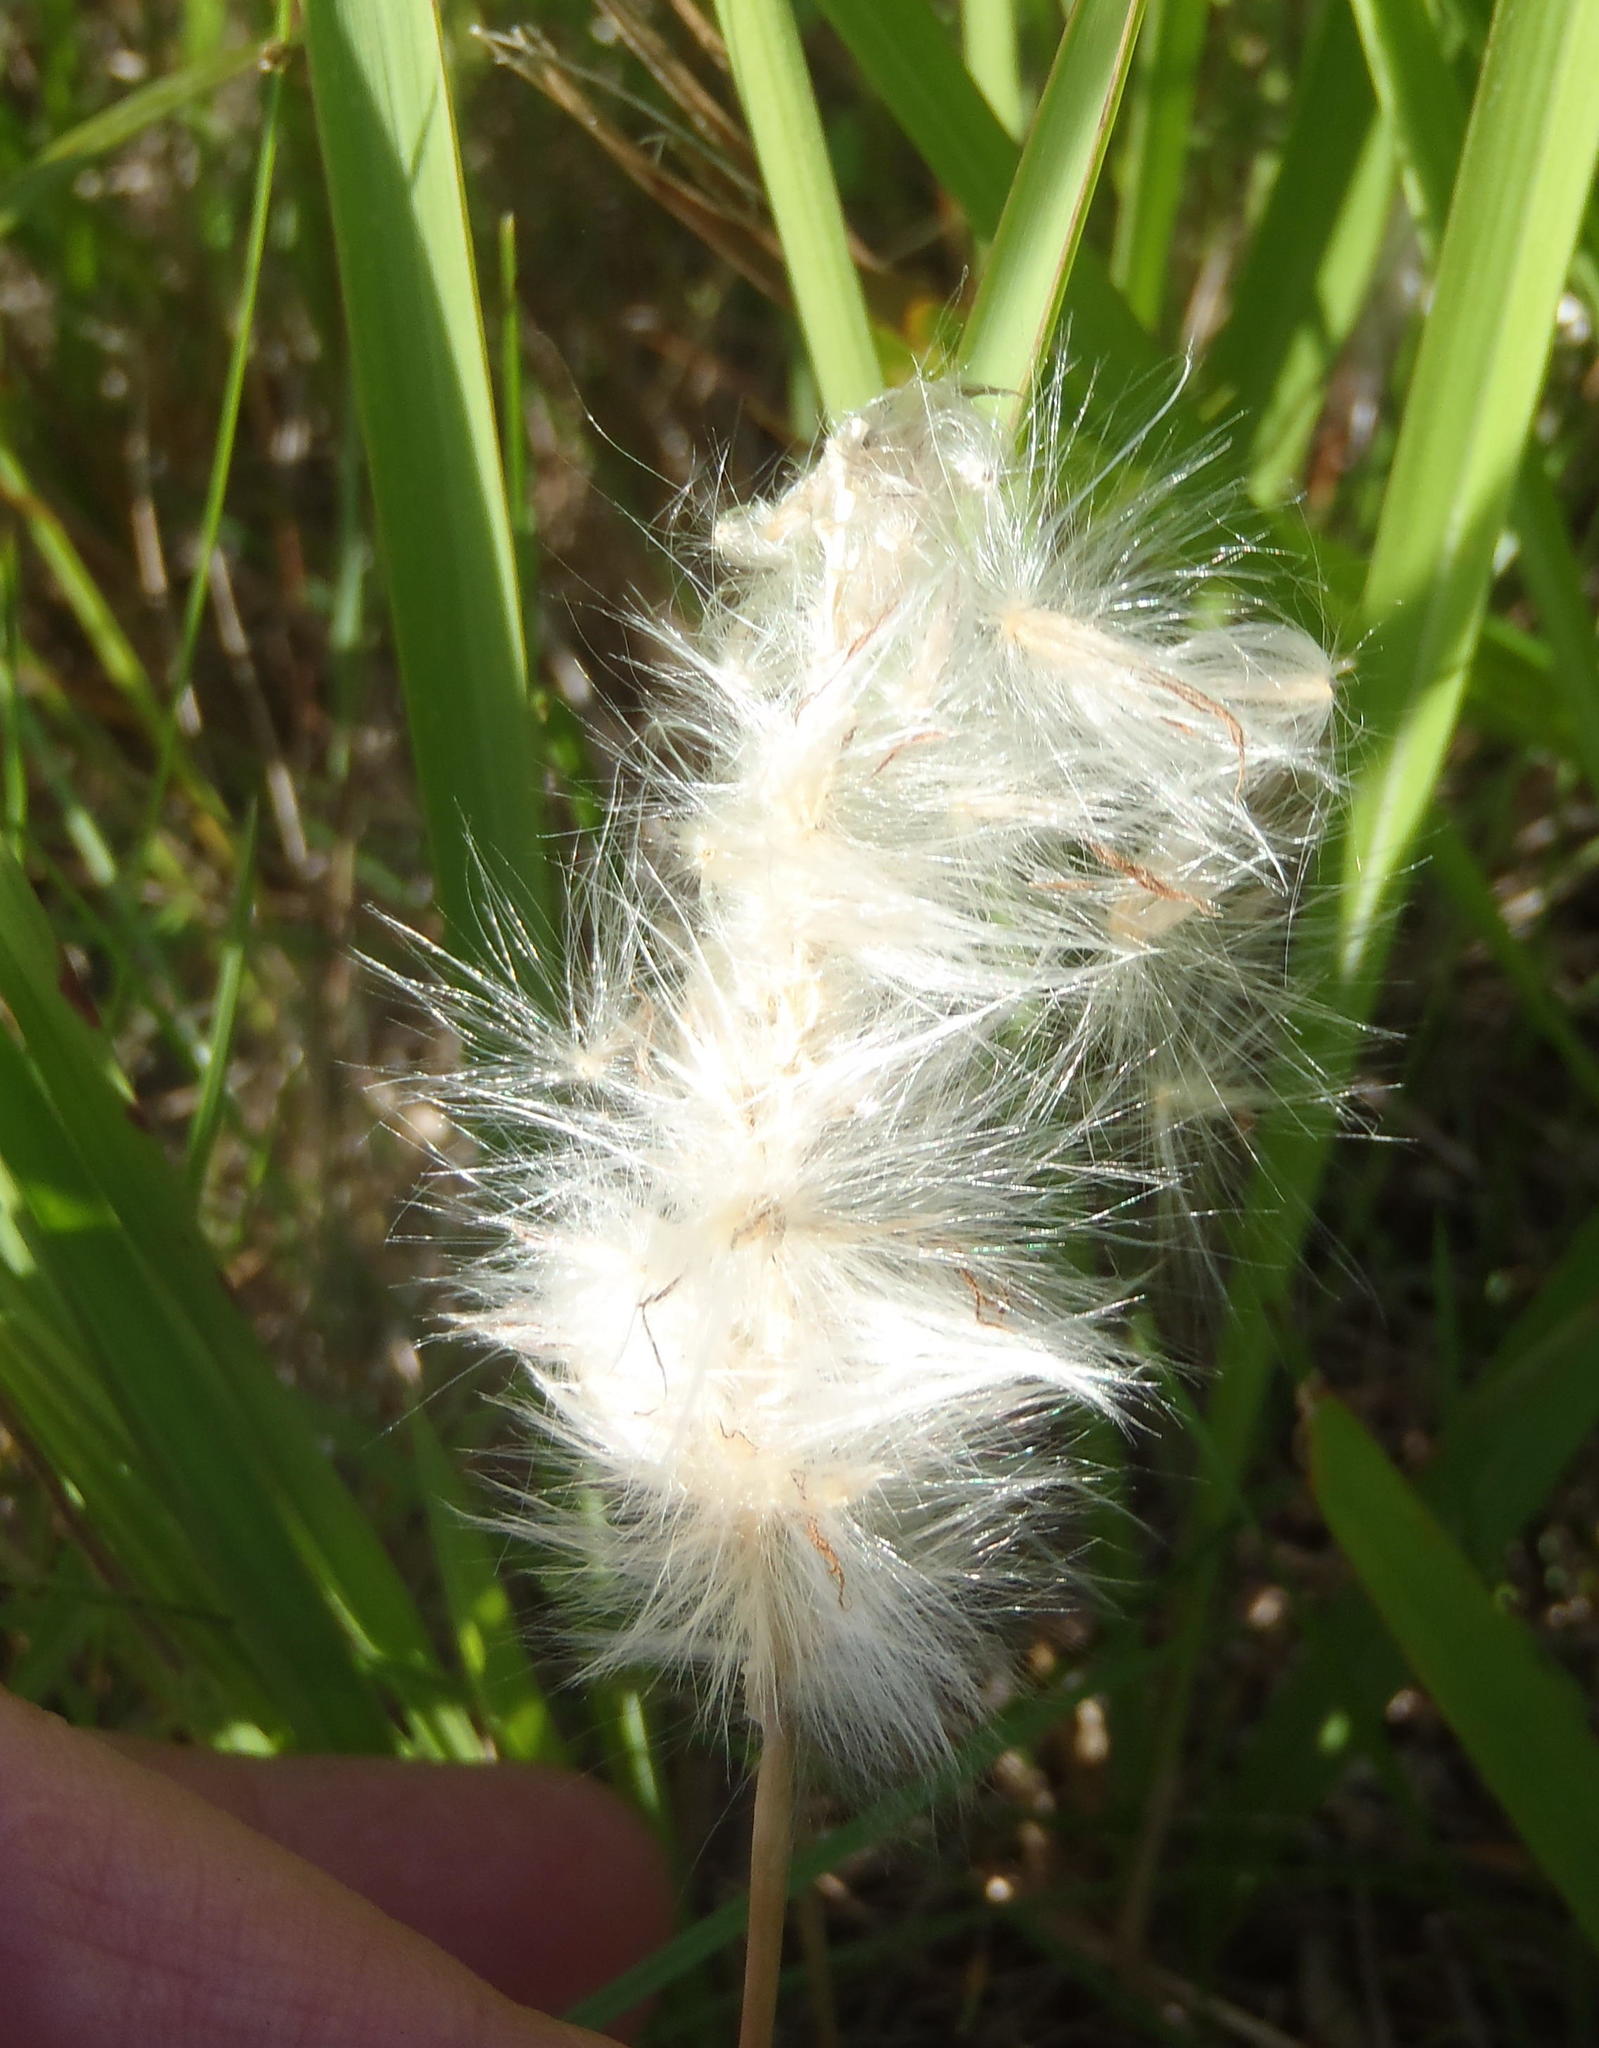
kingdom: Plantae
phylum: Tracheophyta
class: Liliopsida
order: Poales
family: Poaceae
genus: Imperata
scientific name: Imperata cylindrica
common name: Cogongrass
